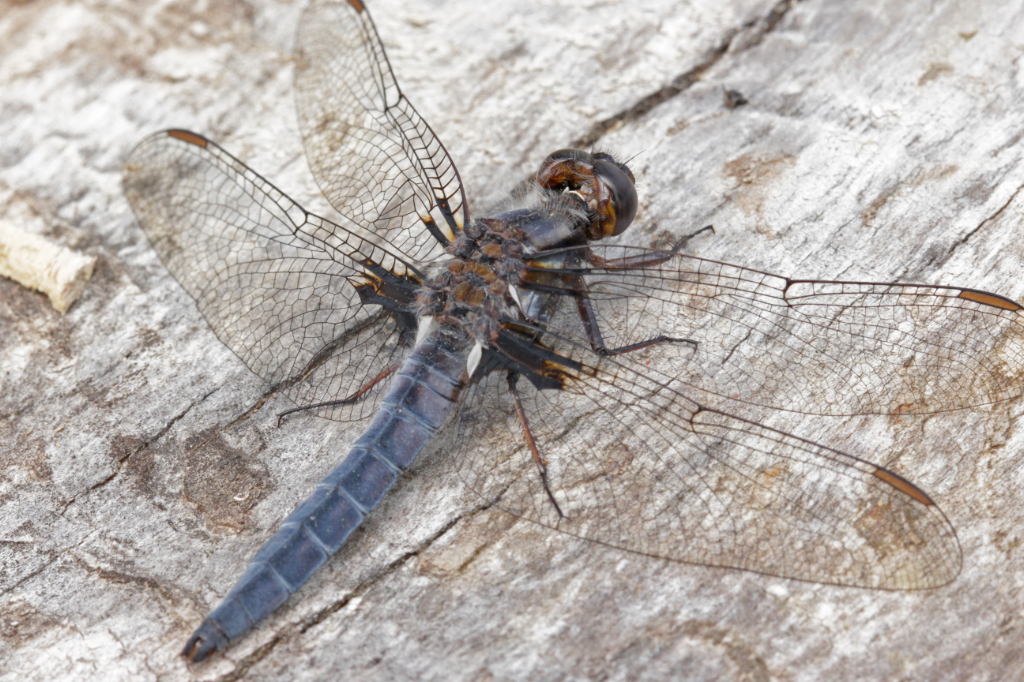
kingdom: Animalia
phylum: Arthropoda
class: Insecta
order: Odonata
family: Libellulidae
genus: Ladona
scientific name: Ladona deplanata
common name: Blue corporal
